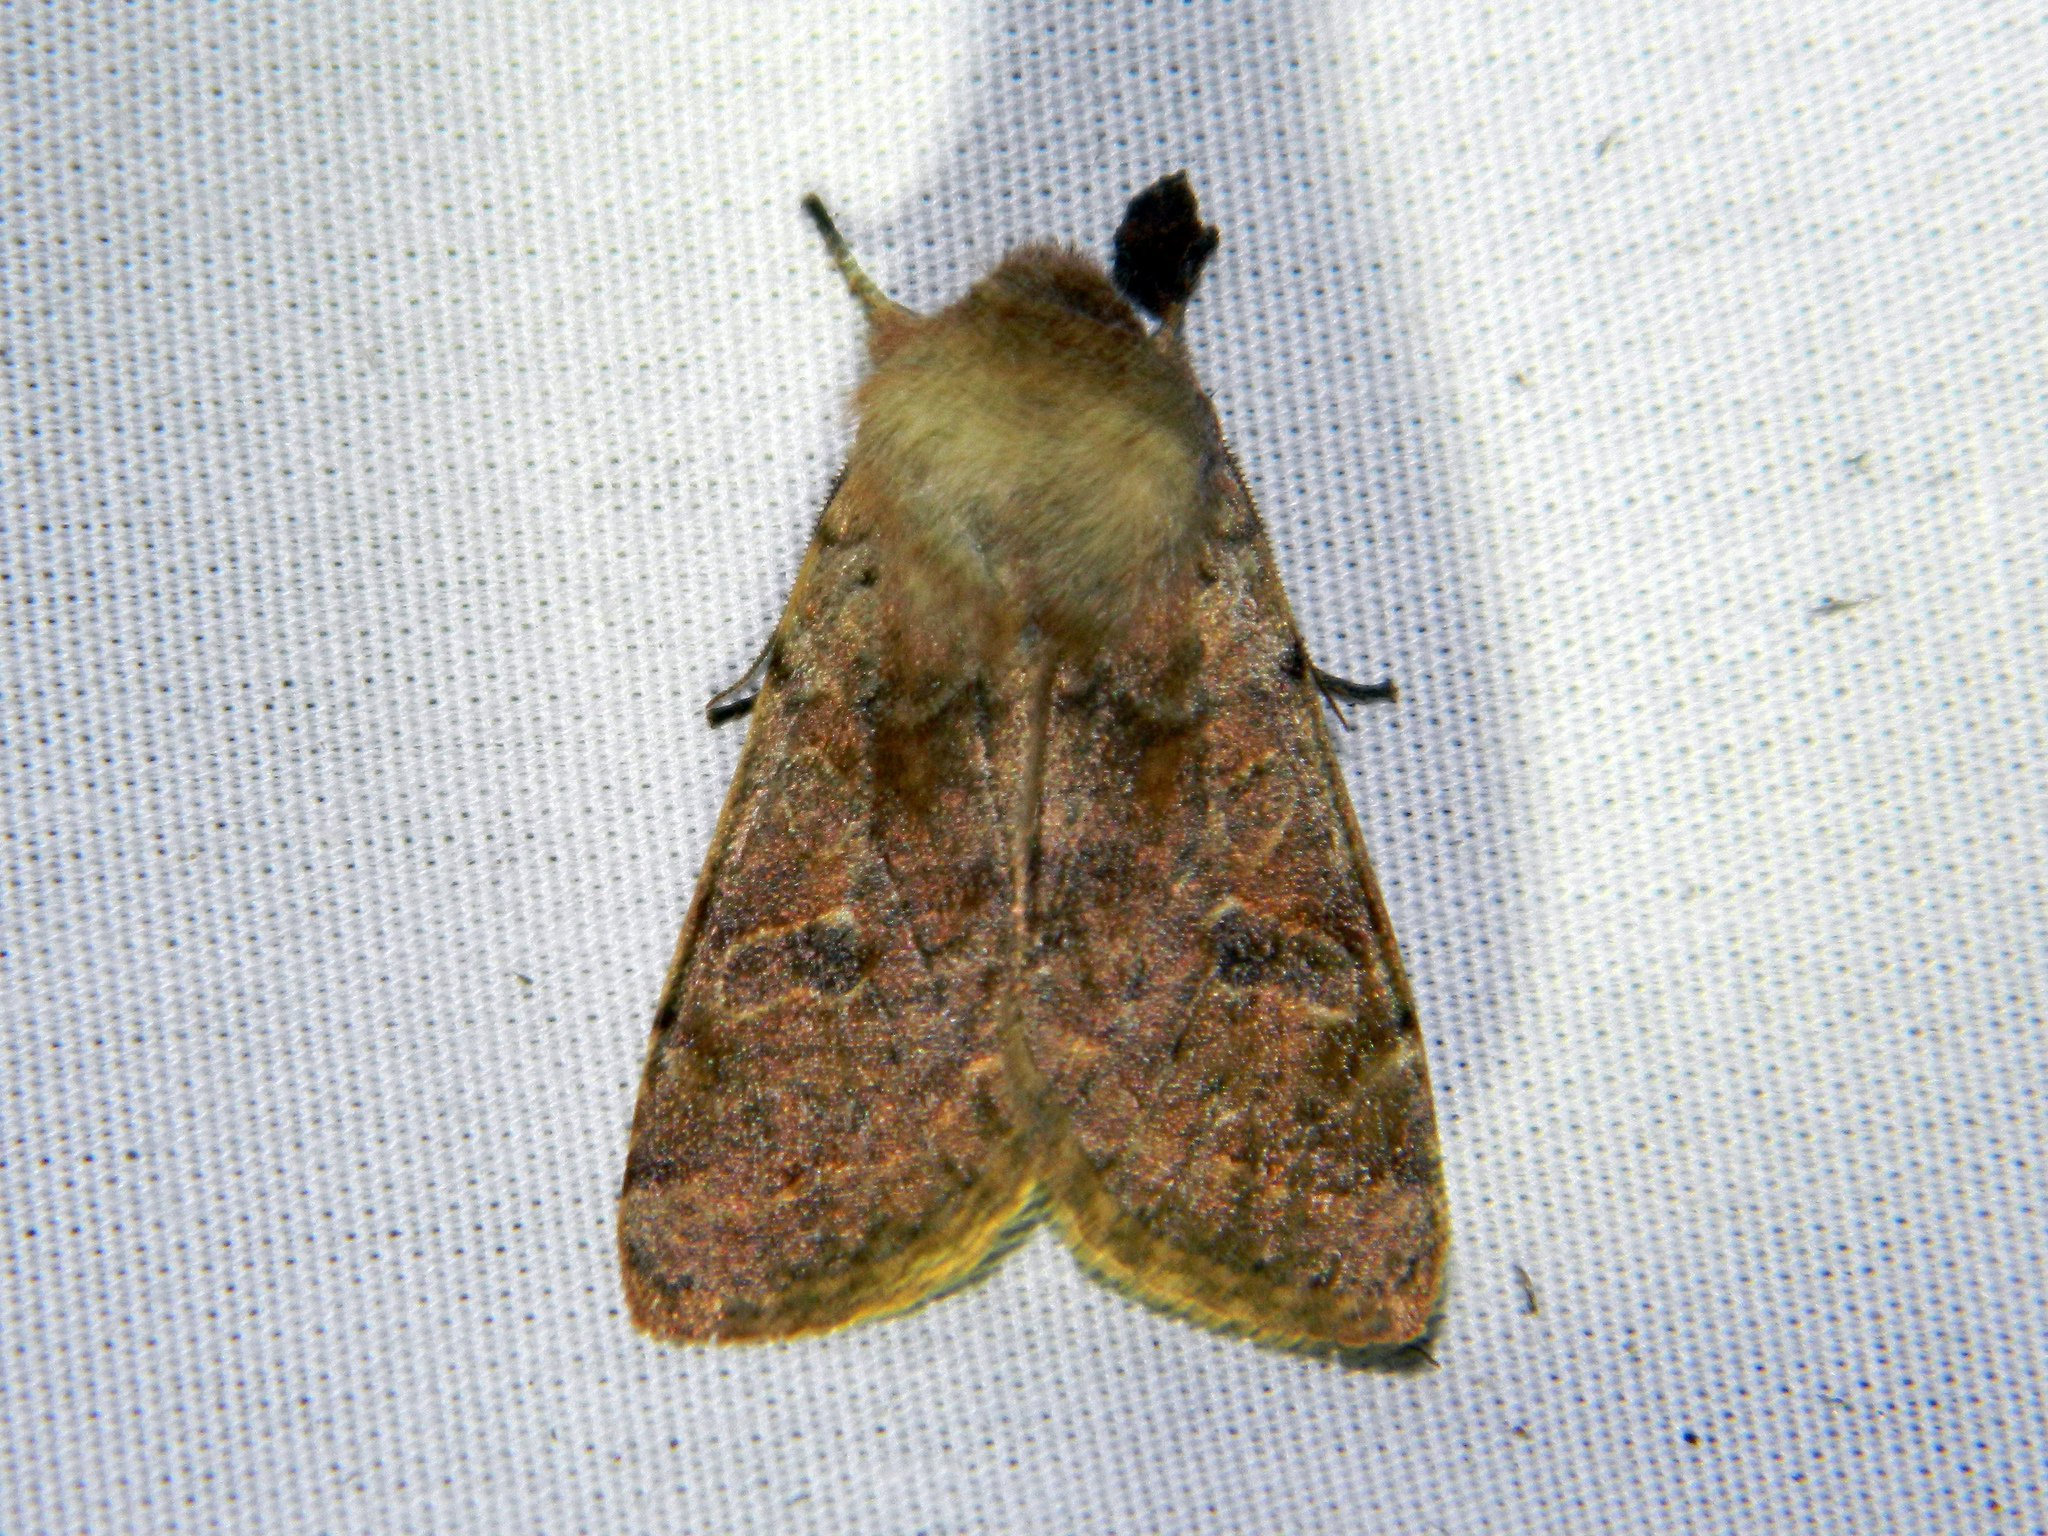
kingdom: Animalia
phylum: Arthropoda
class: Insecta
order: Lepidoptera
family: Noctuidae
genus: Orthosia
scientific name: Orthosia hibisci
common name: Green fruitworm
